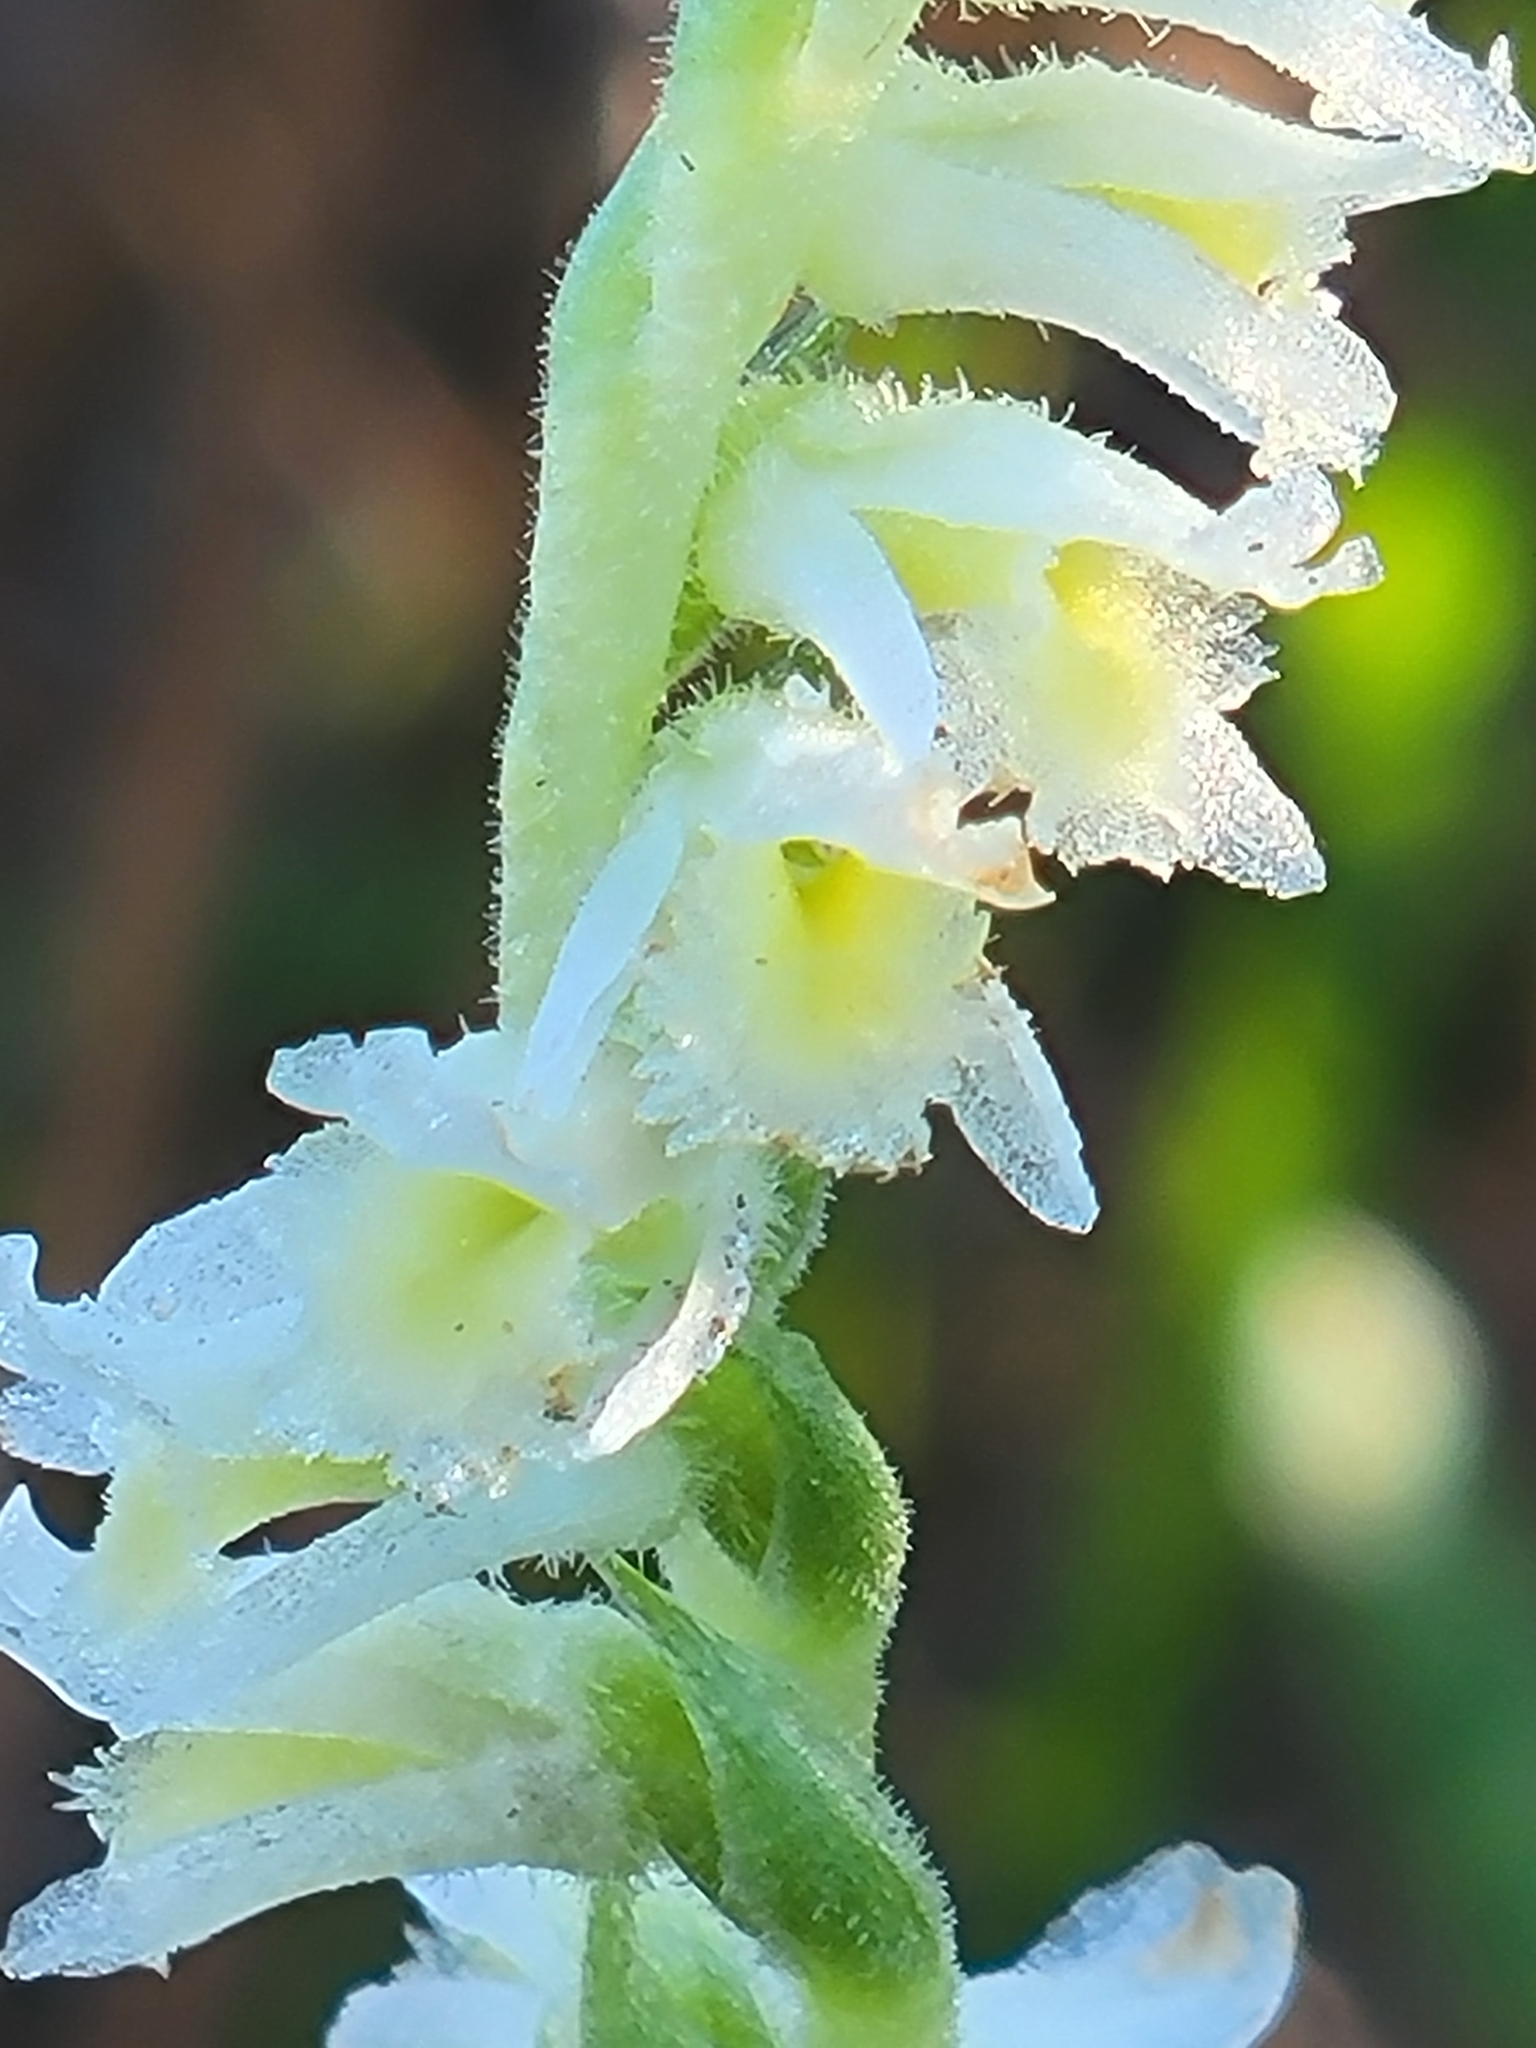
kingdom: Plantae
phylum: Tracheophyta
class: Liliopsida
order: Asparagales
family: Orchidaceae
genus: Spiranthes
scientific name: Spiranthes brevilabris
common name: Texas ladies'-tresses
